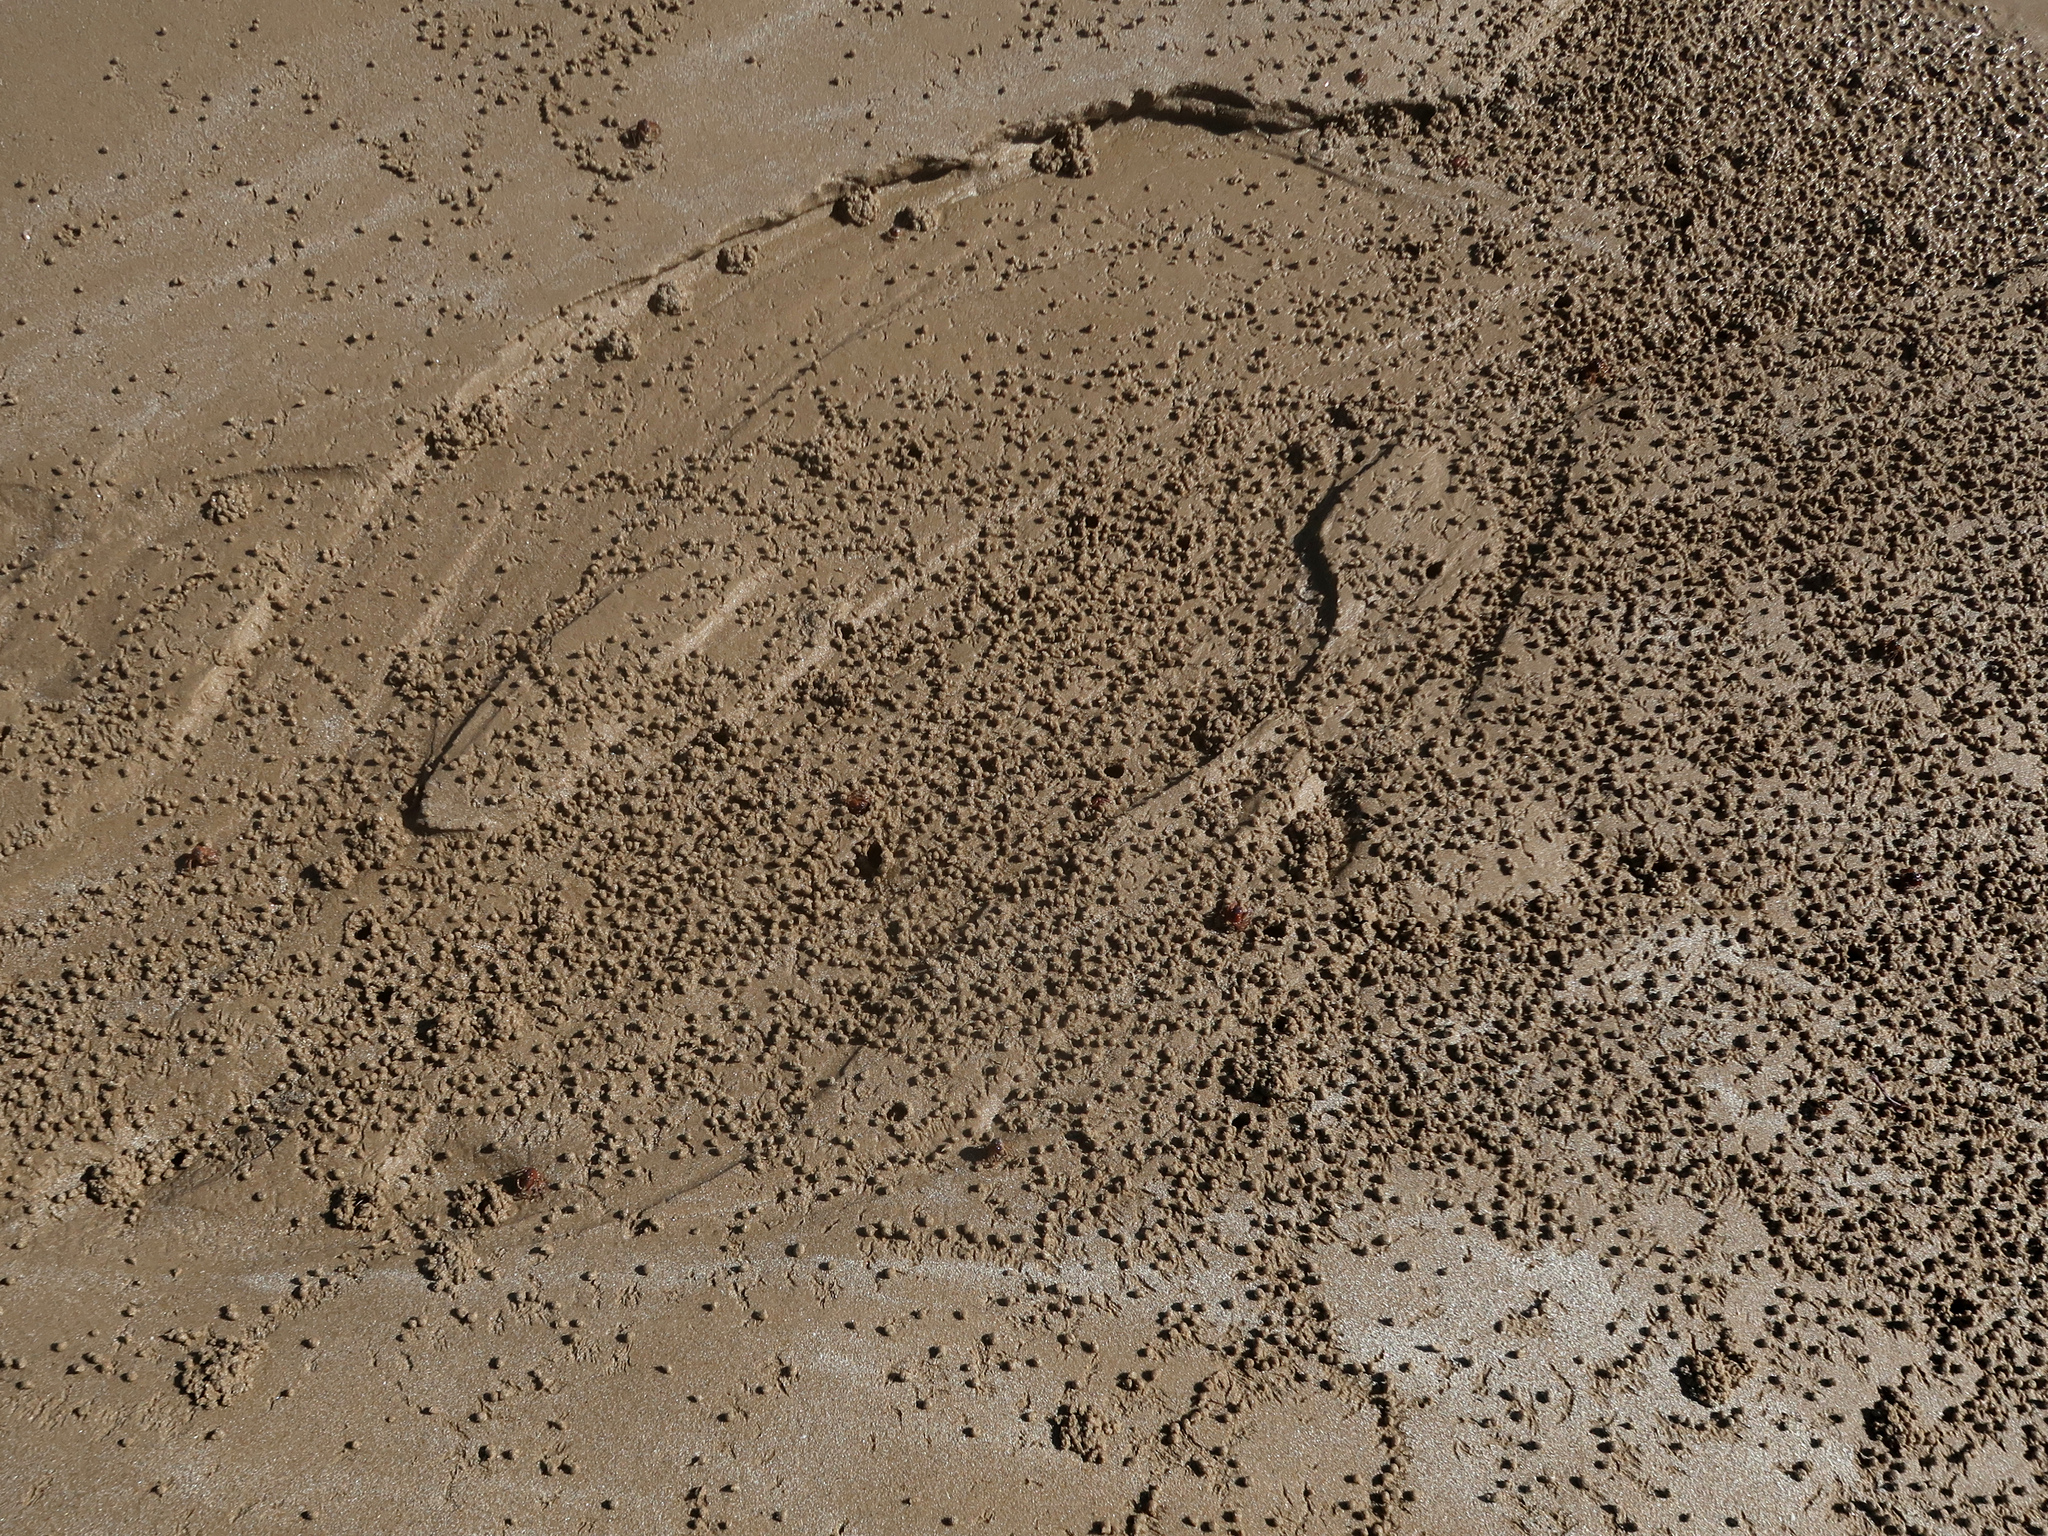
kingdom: Animalia
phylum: Arthropoda
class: Malacostraca
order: Decapoda
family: Mictyridae
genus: Mictyris
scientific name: Mictyris platycheles
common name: Dark blue soldier crab
